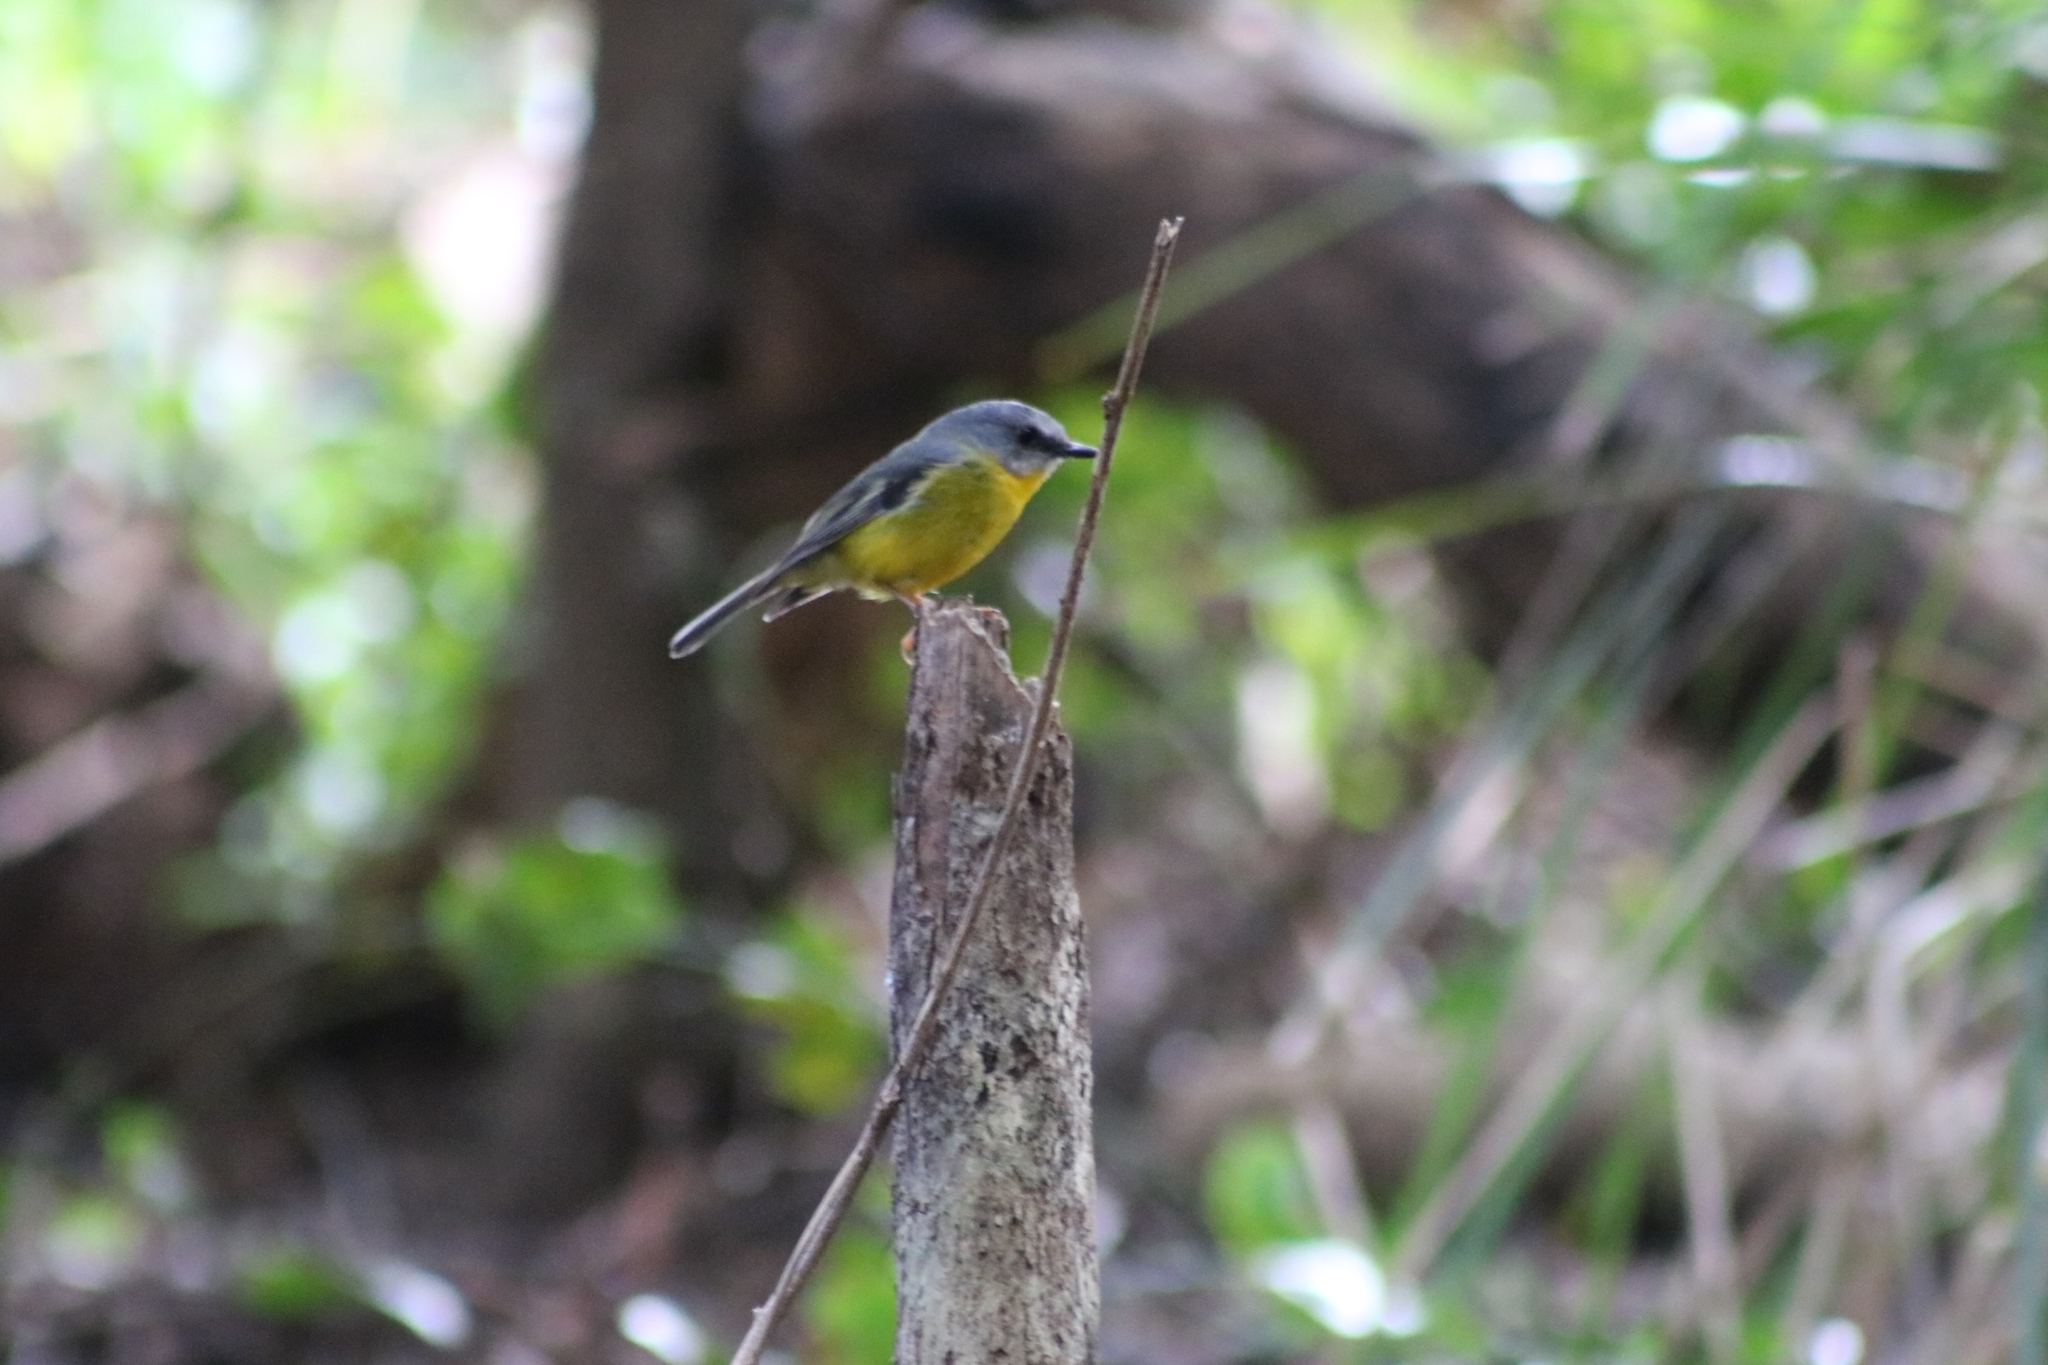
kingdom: Animalia
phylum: Chordata
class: Aves
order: Passeriformes
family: Petroicidae
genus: Eopsaltria
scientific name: Eopsaltria australis
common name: Eastern yellow robin
